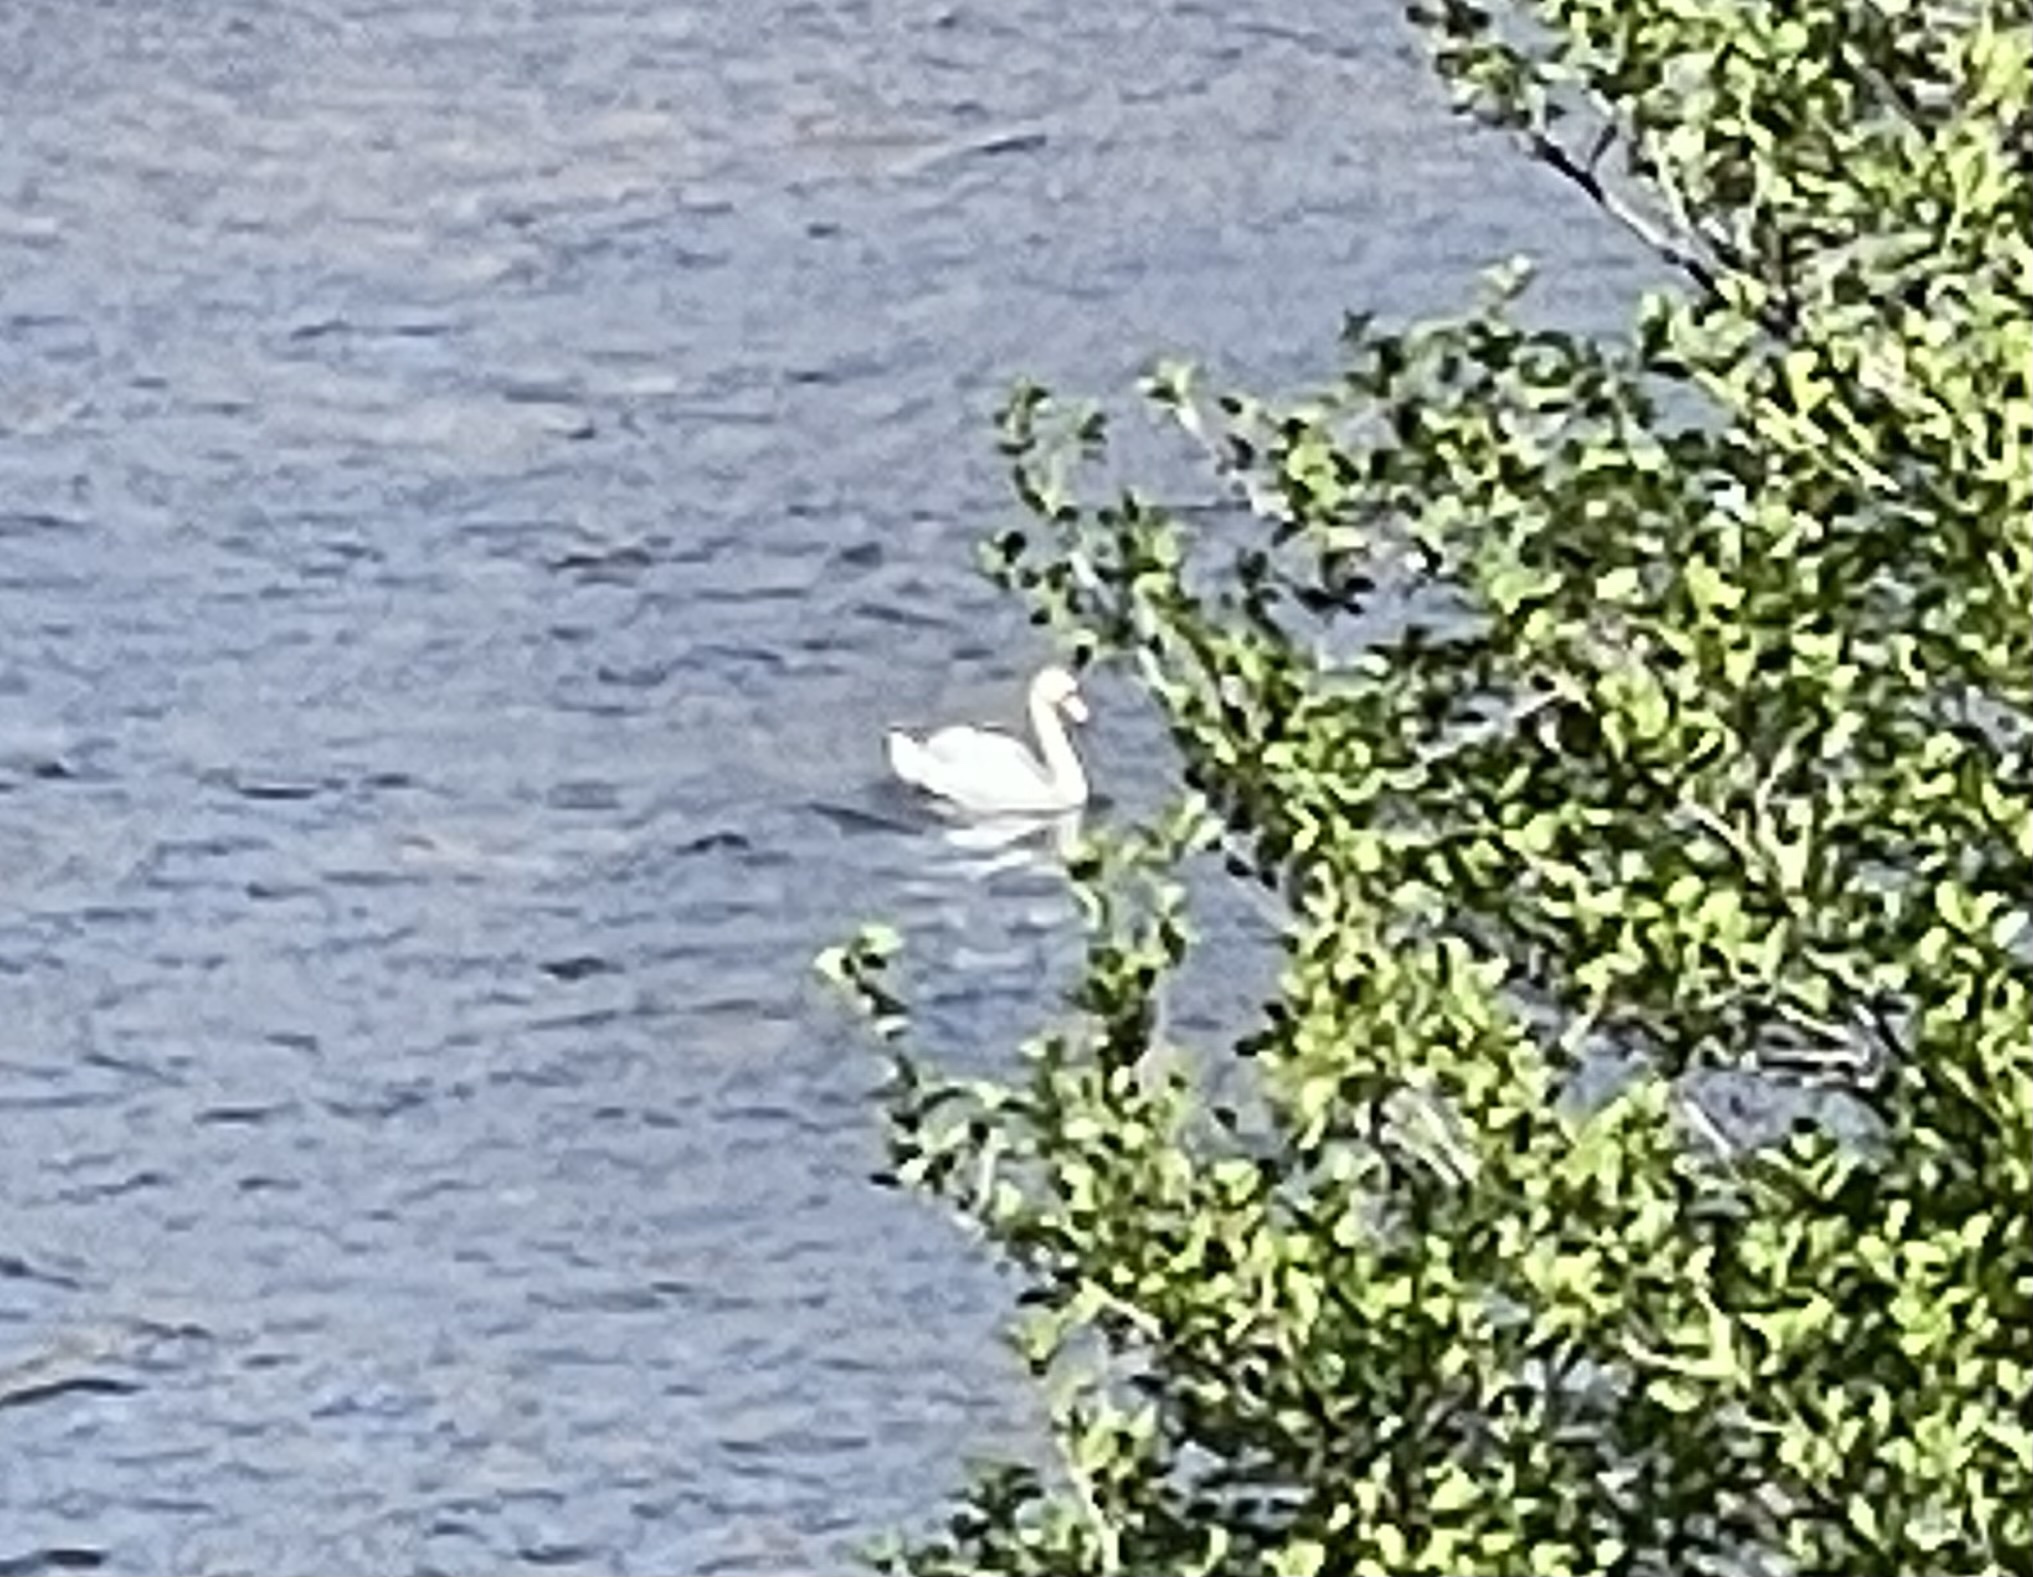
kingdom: Animalia
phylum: Chordata
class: Aves
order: Anseriformes
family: Anatidae
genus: Cygnus
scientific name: Cygnus olor
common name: Mute swan
